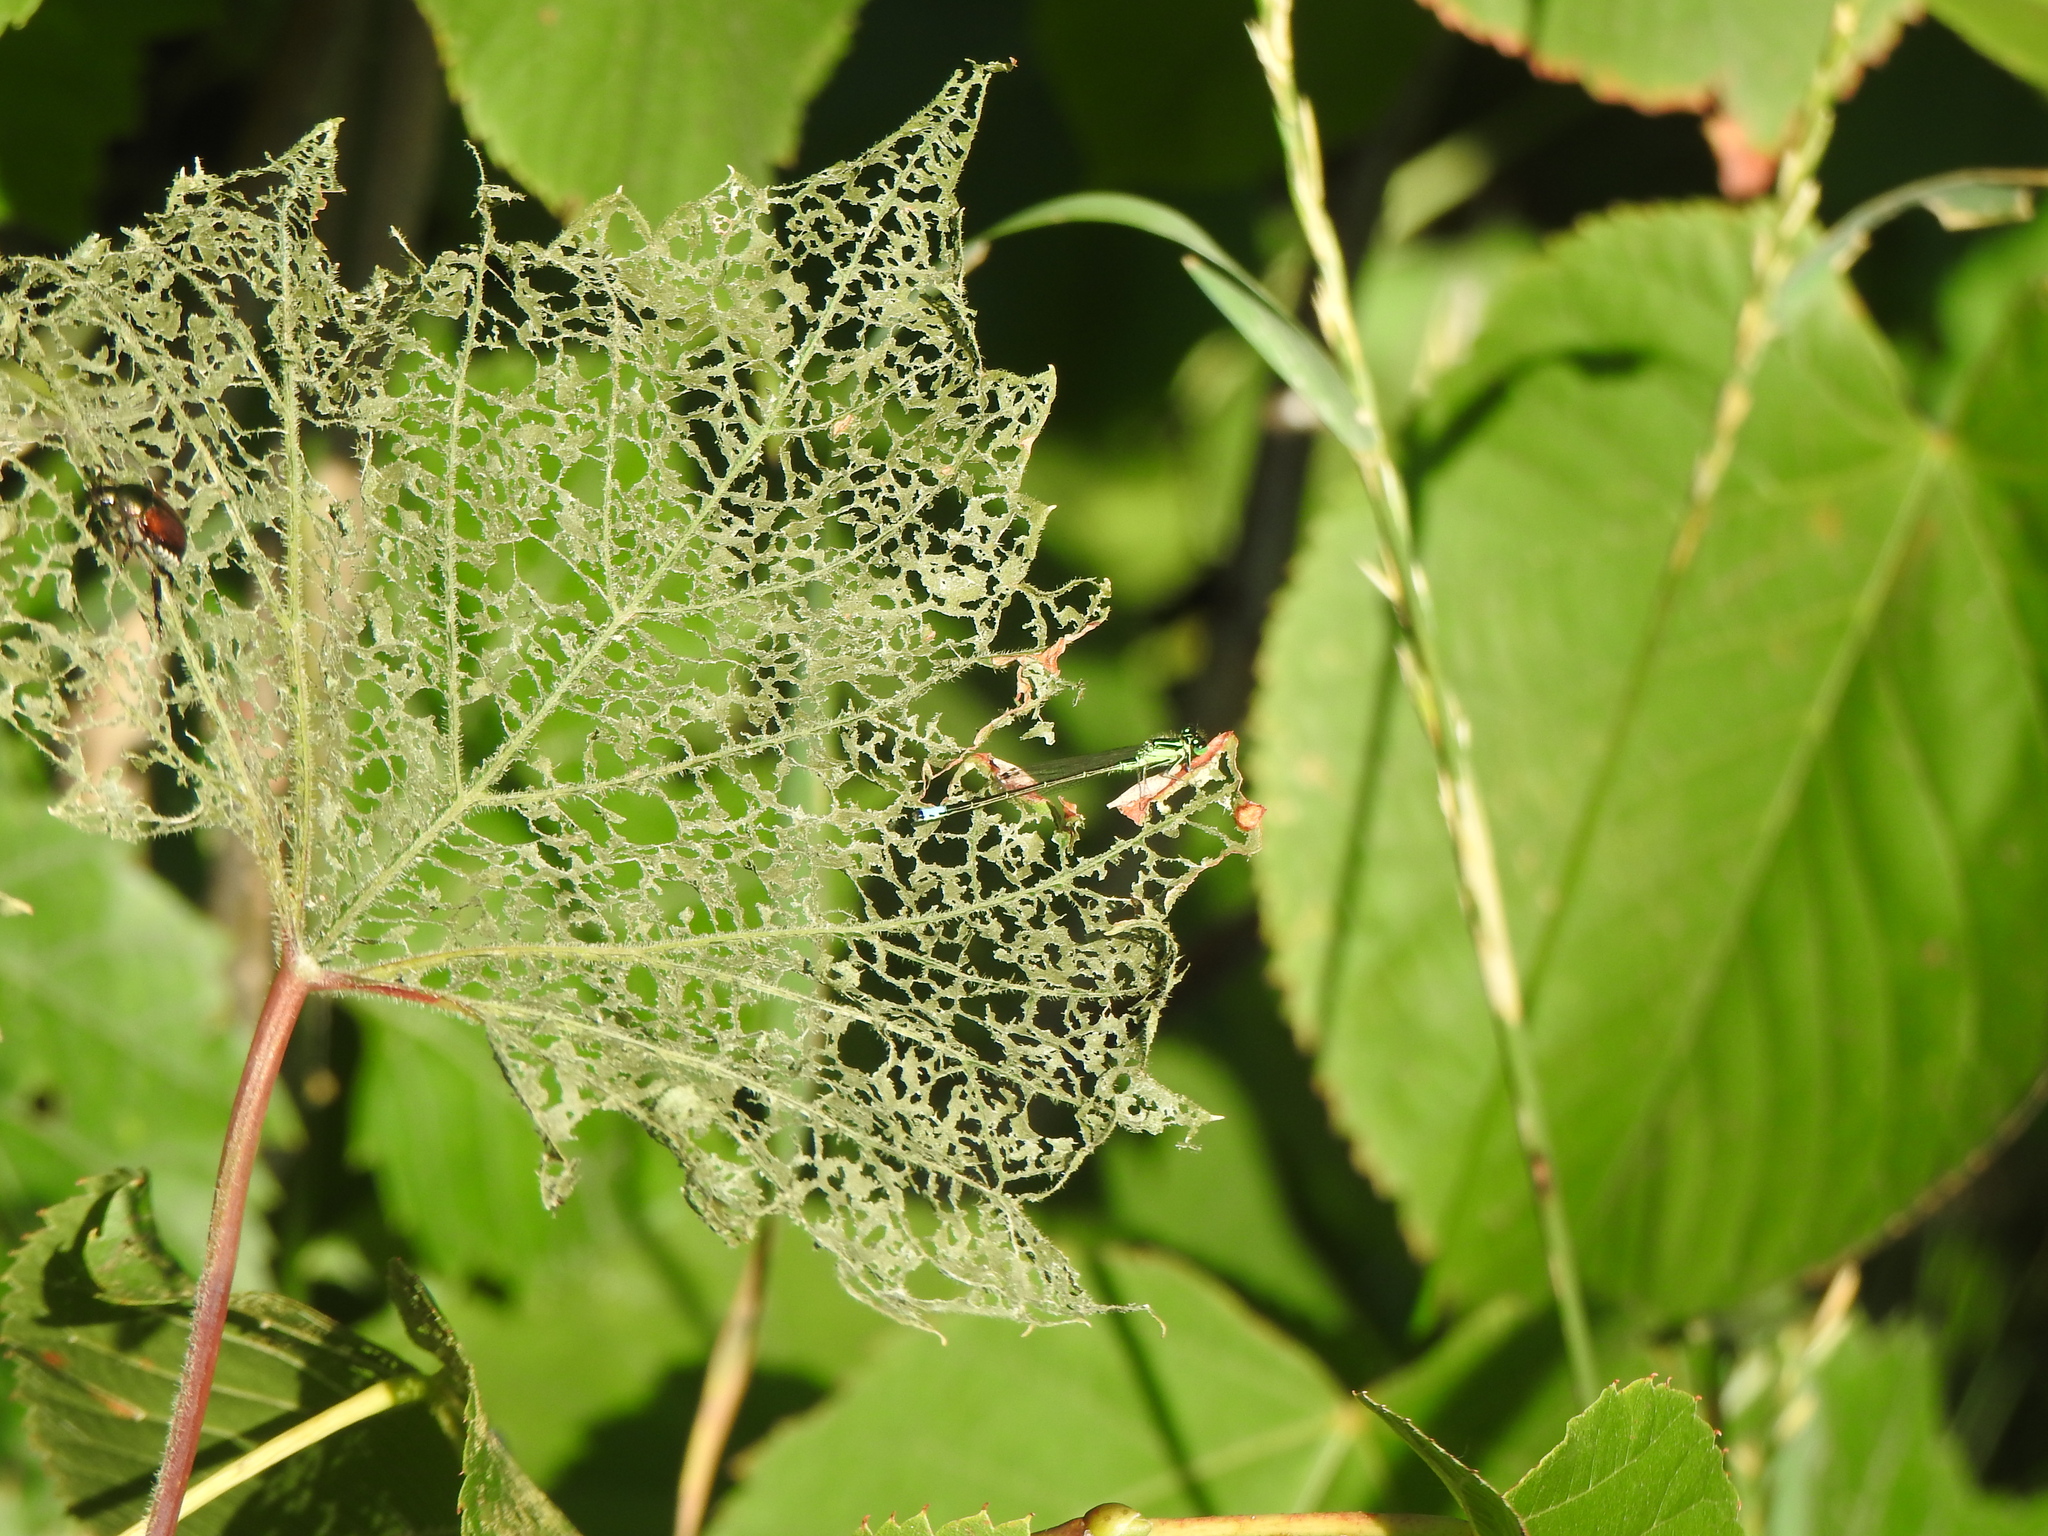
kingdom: Animalia
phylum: Arthropoda
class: Insecta
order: Odonata
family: Coenagrionidae
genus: Ischnura
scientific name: Ischnura verticalis
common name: Eastern forktail
